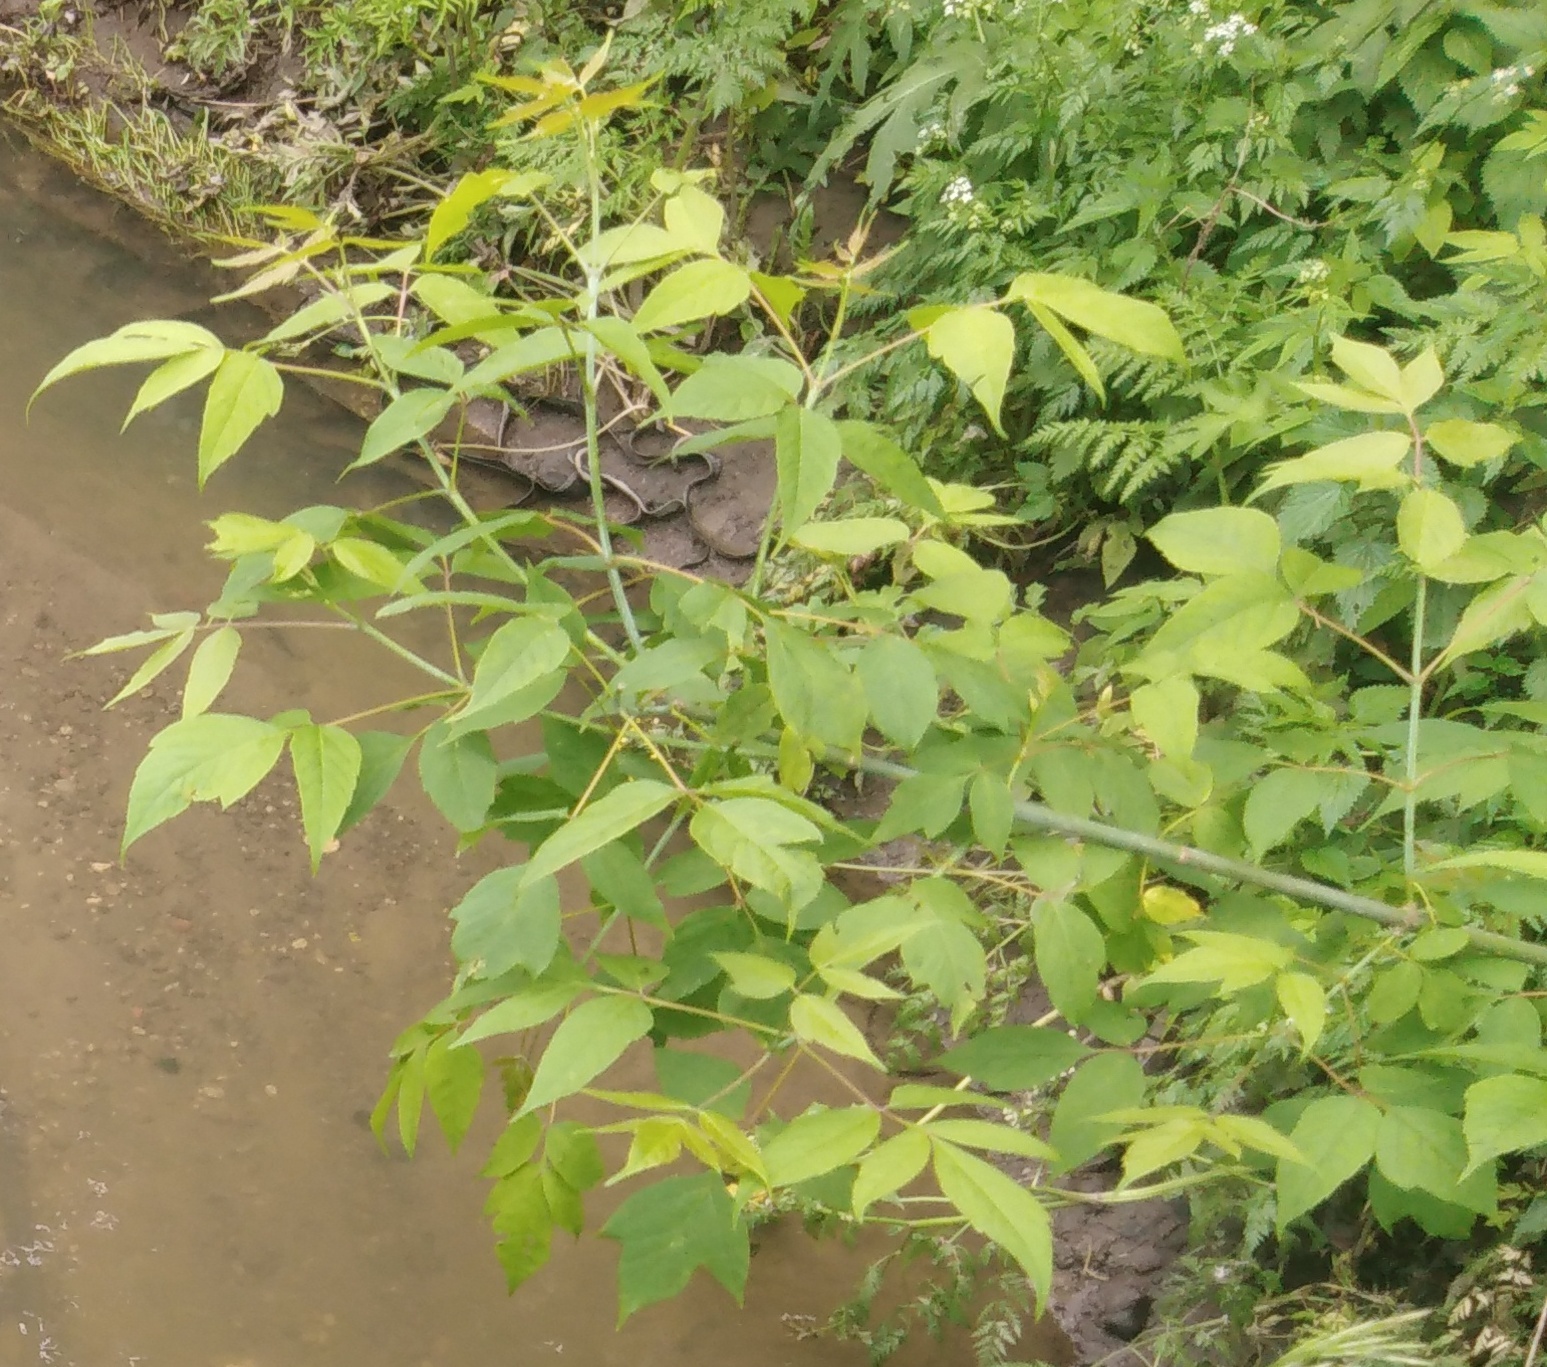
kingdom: Plantae
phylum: Tracheophyta
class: Magnoliopsida
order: Sapindales
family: Sapindaceae
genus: Acer
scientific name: Acer negundo
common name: Ashleaf maple
